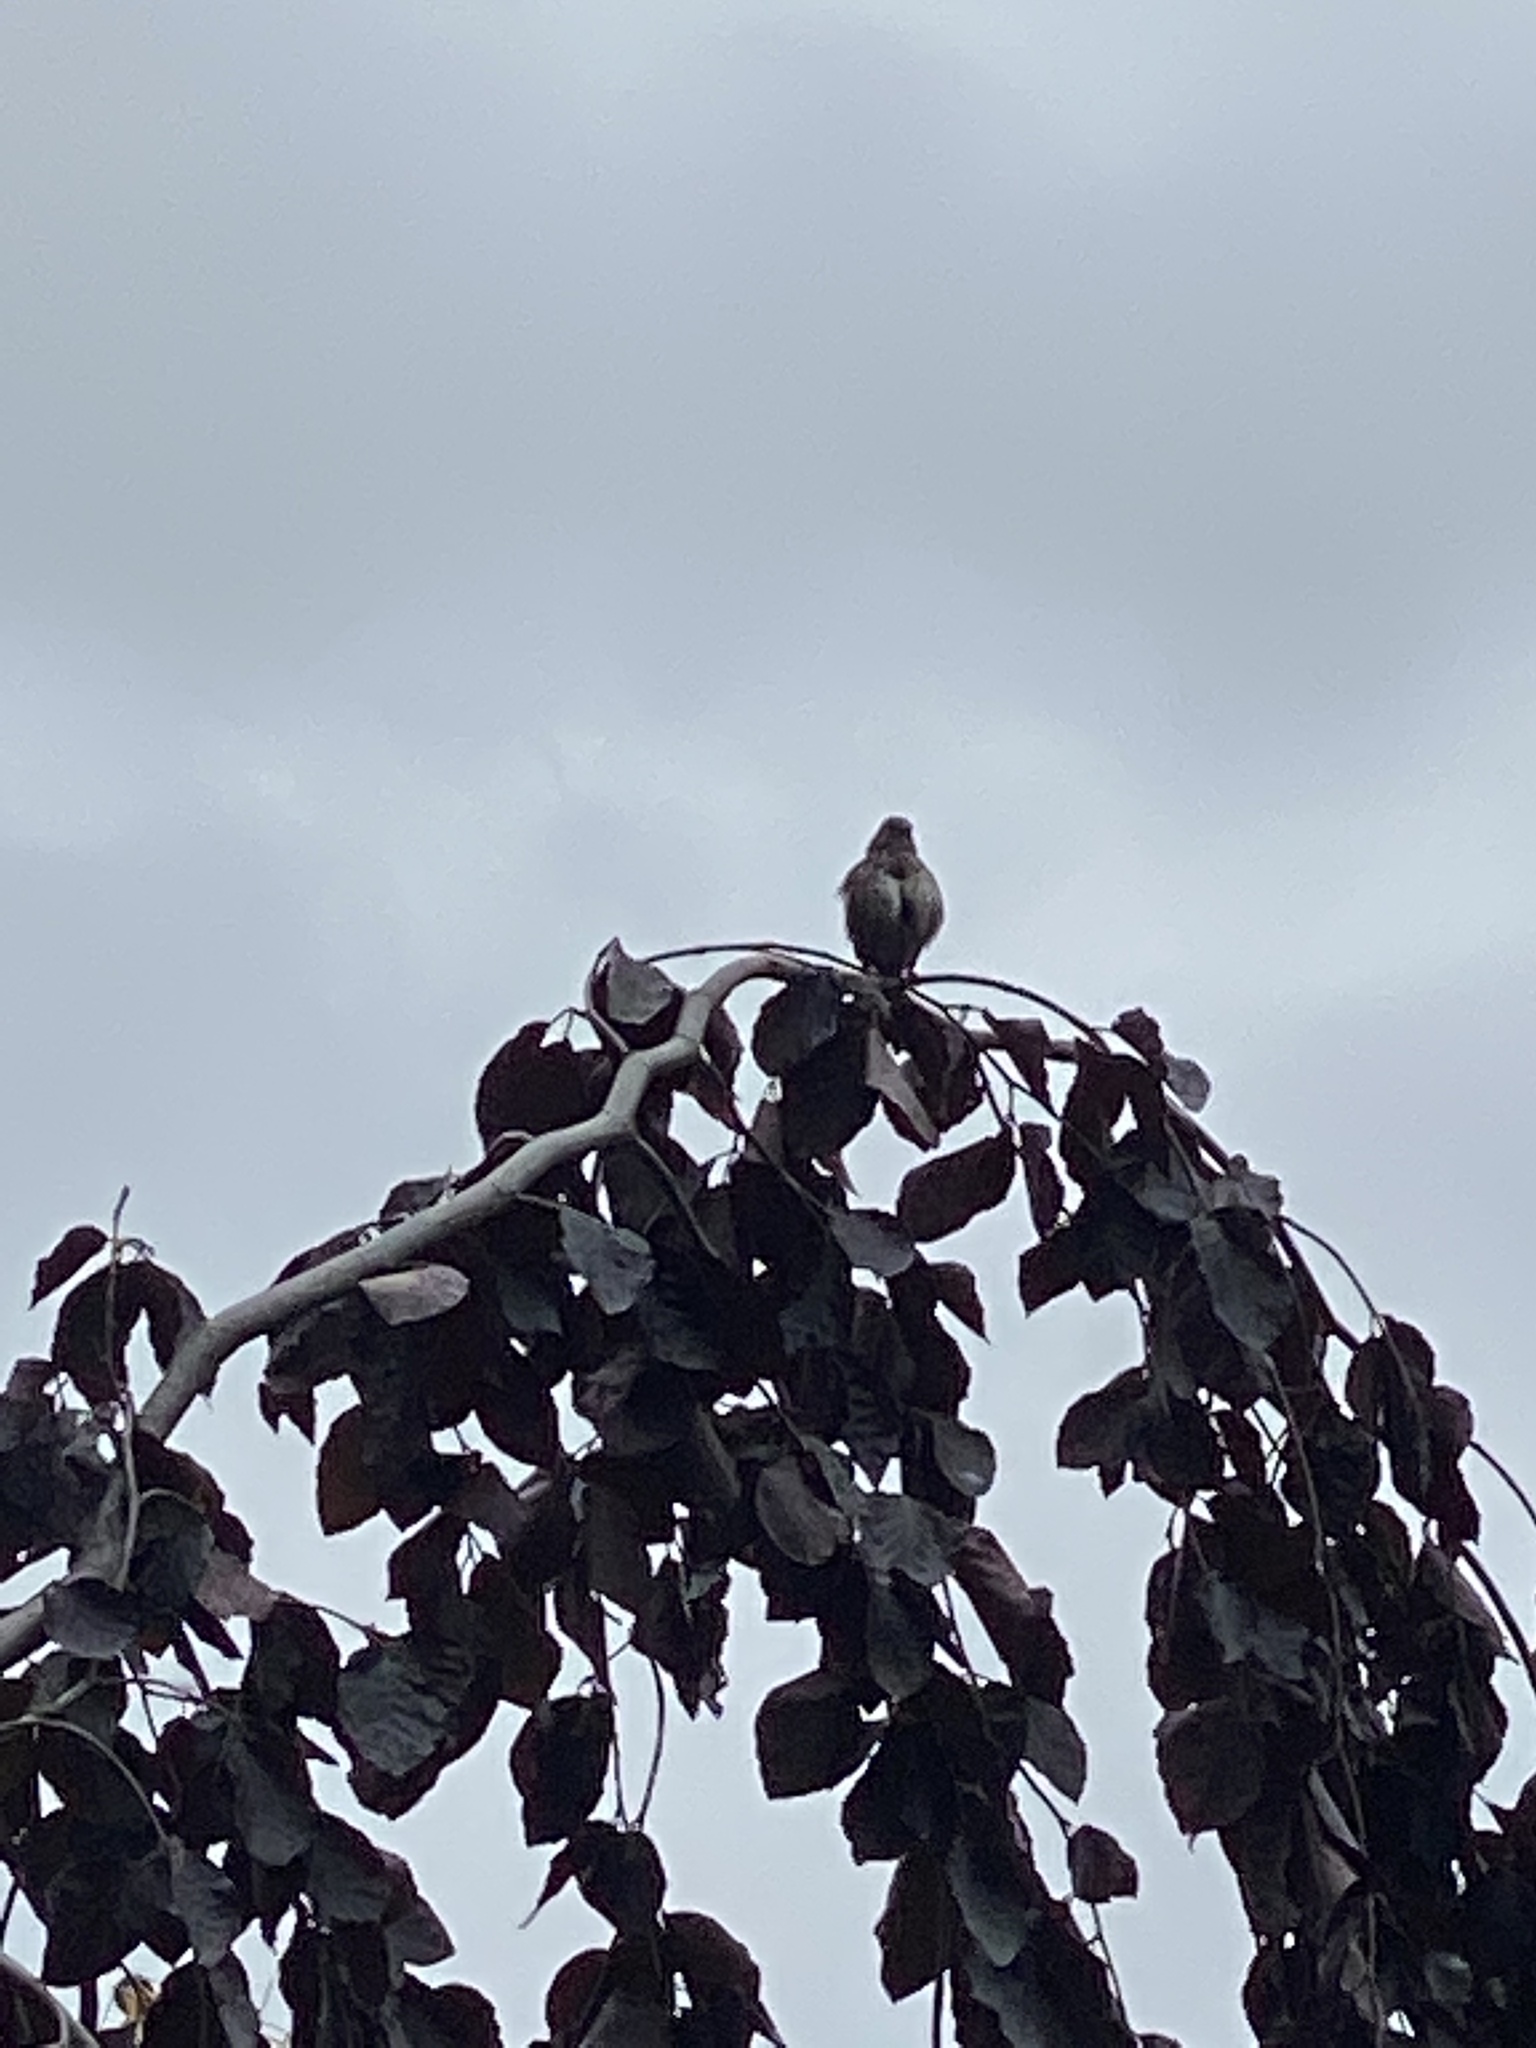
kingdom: Animalia
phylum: Chordata
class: Aves
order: Passeriformes
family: Passerellidae
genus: Melospiza
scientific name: Melospiza melodia
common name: Song sparrow
